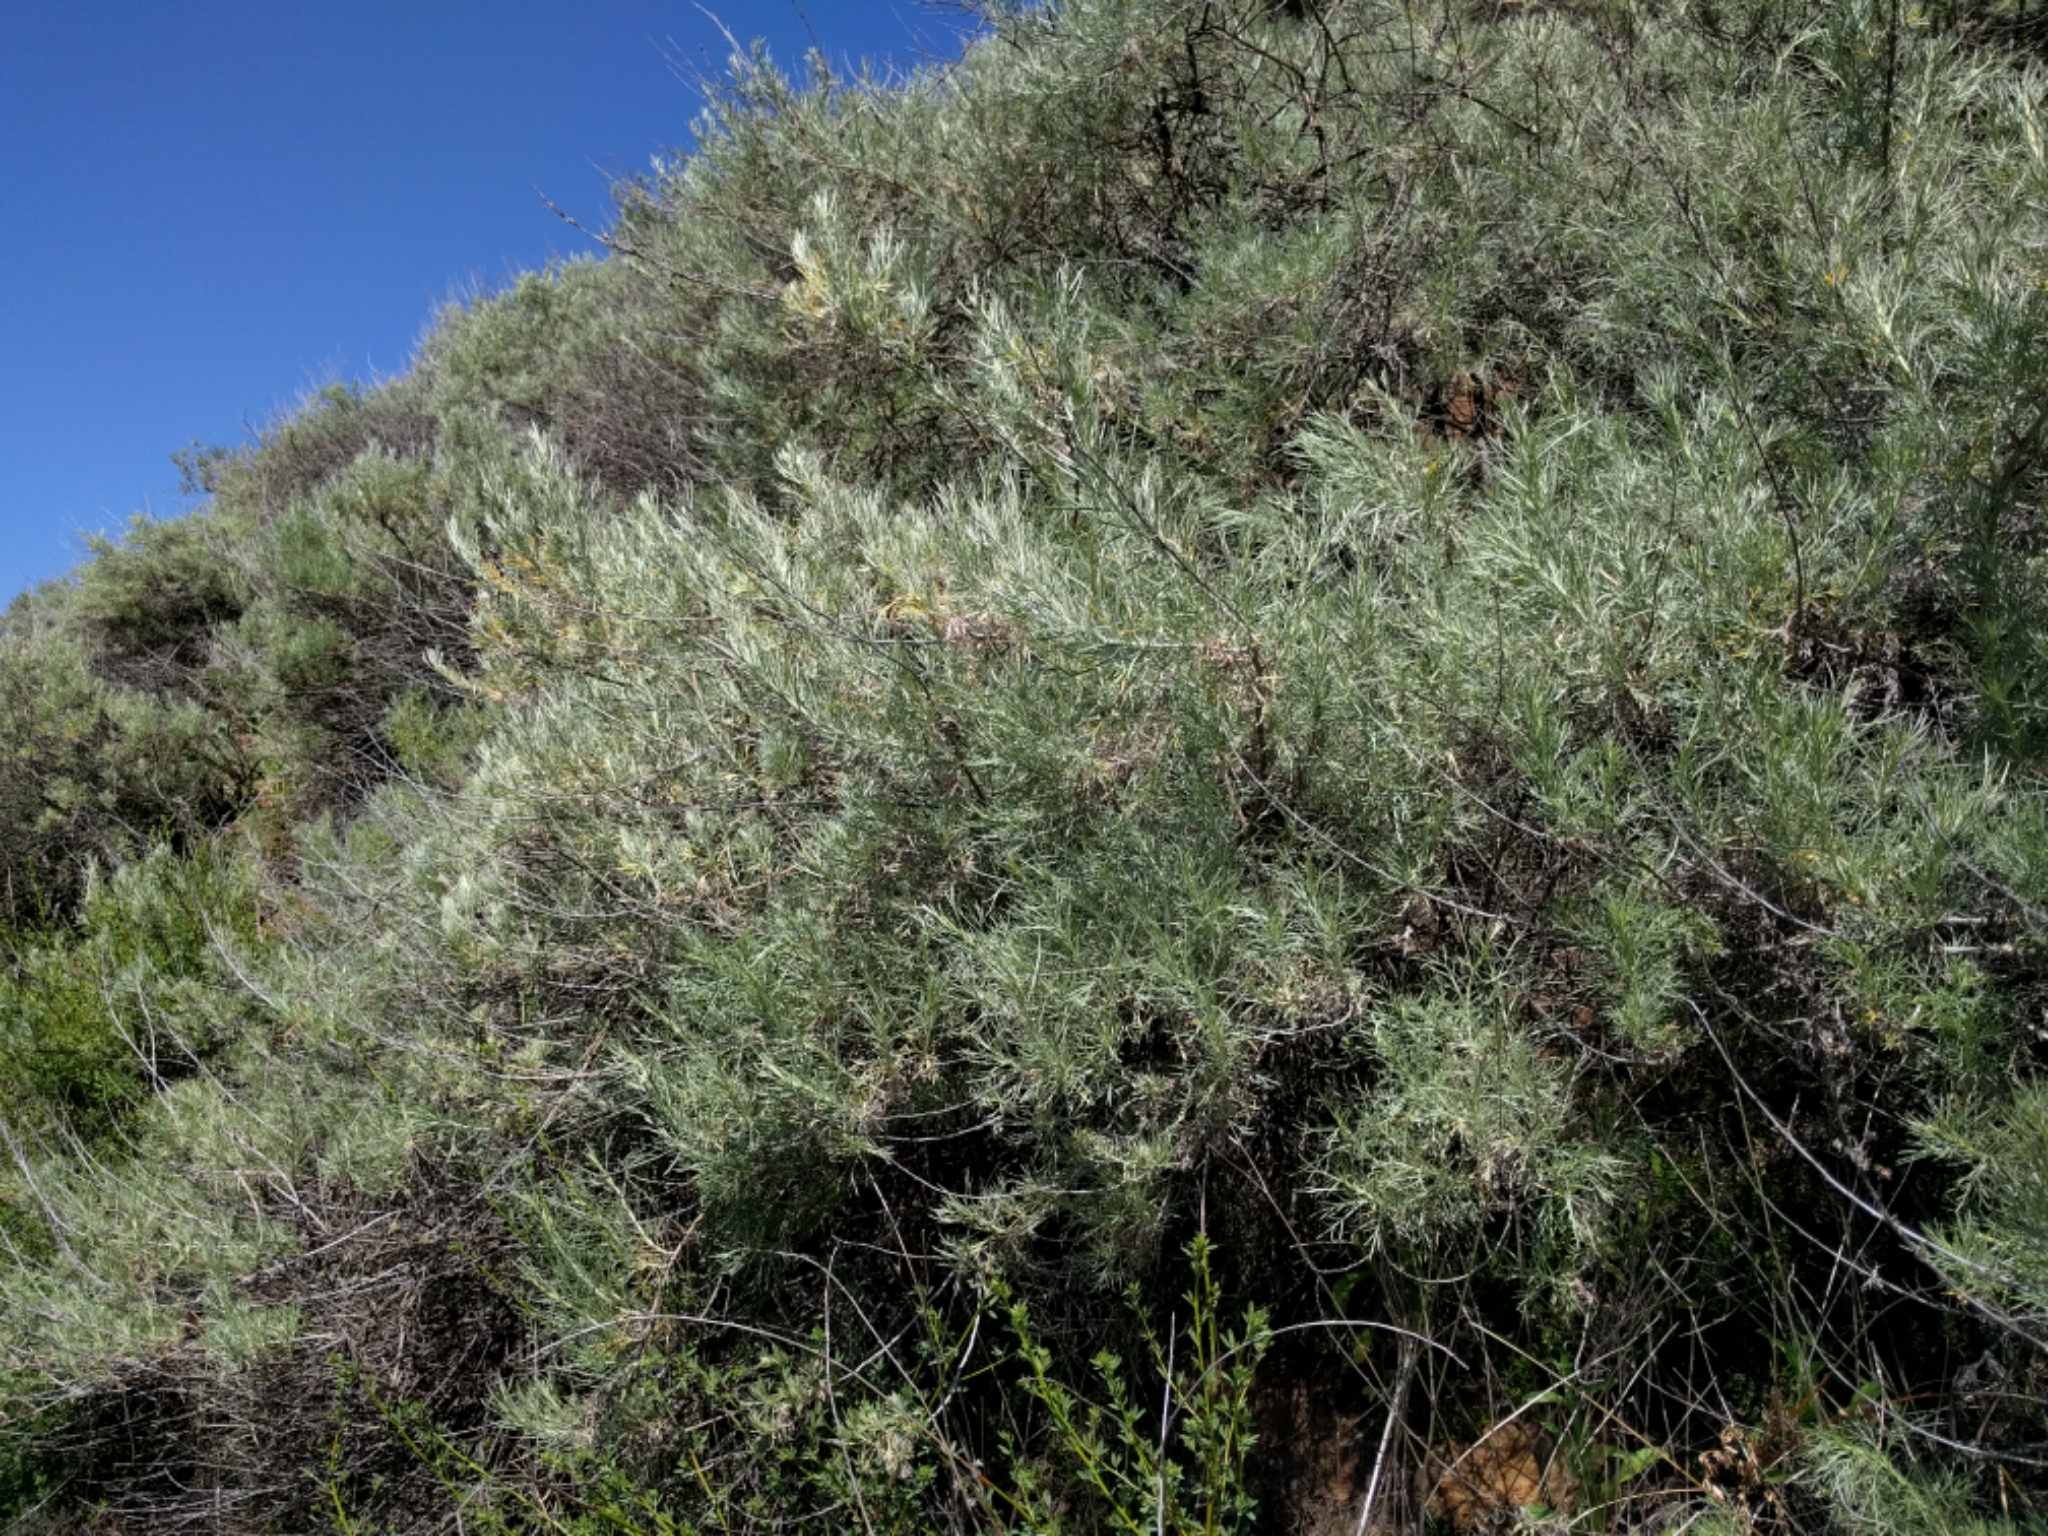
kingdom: Plantae
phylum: Tracheophyta
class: Magnoliopsida
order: Asterales
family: Asteraceae
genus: Artemisia
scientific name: Artemisia californica
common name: California sagebrush
